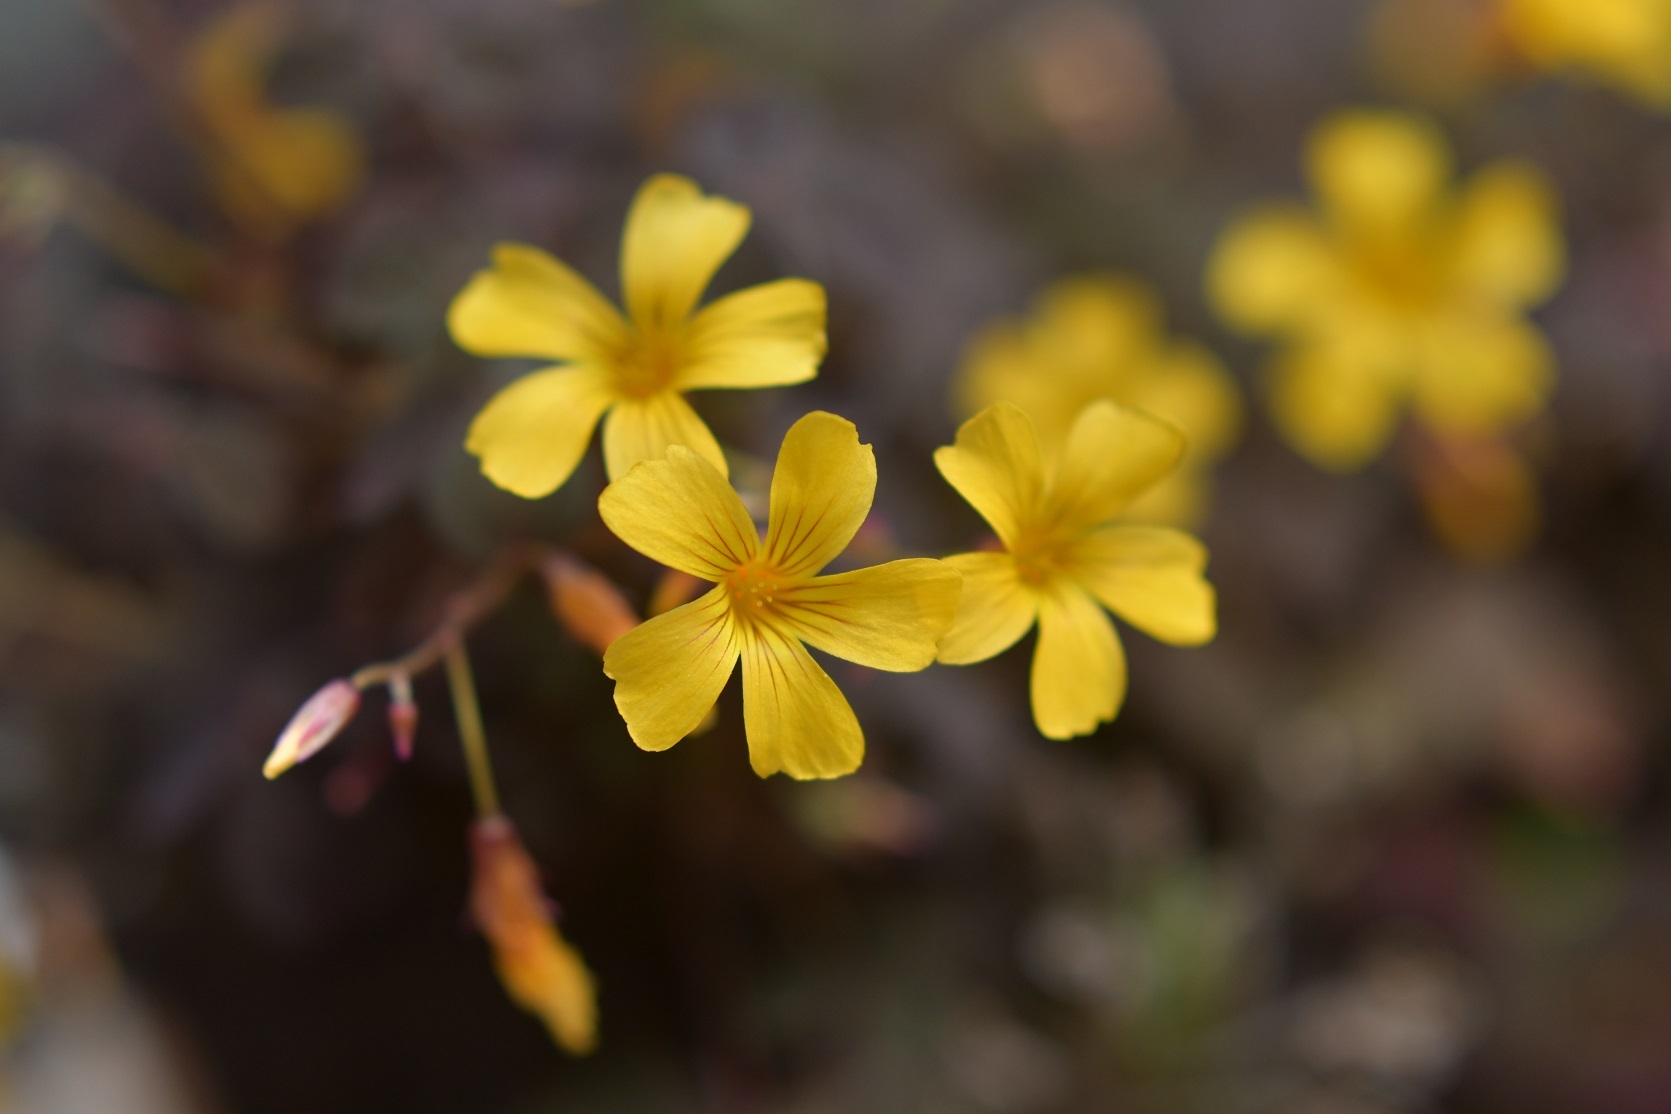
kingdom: Plantae
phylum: Tracheophyta
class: Magnoliopsida
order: Oxalidales
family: Oxalidaceae
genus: Oxalis
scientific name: Oxalis spiralis
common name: Spiral sorrel
